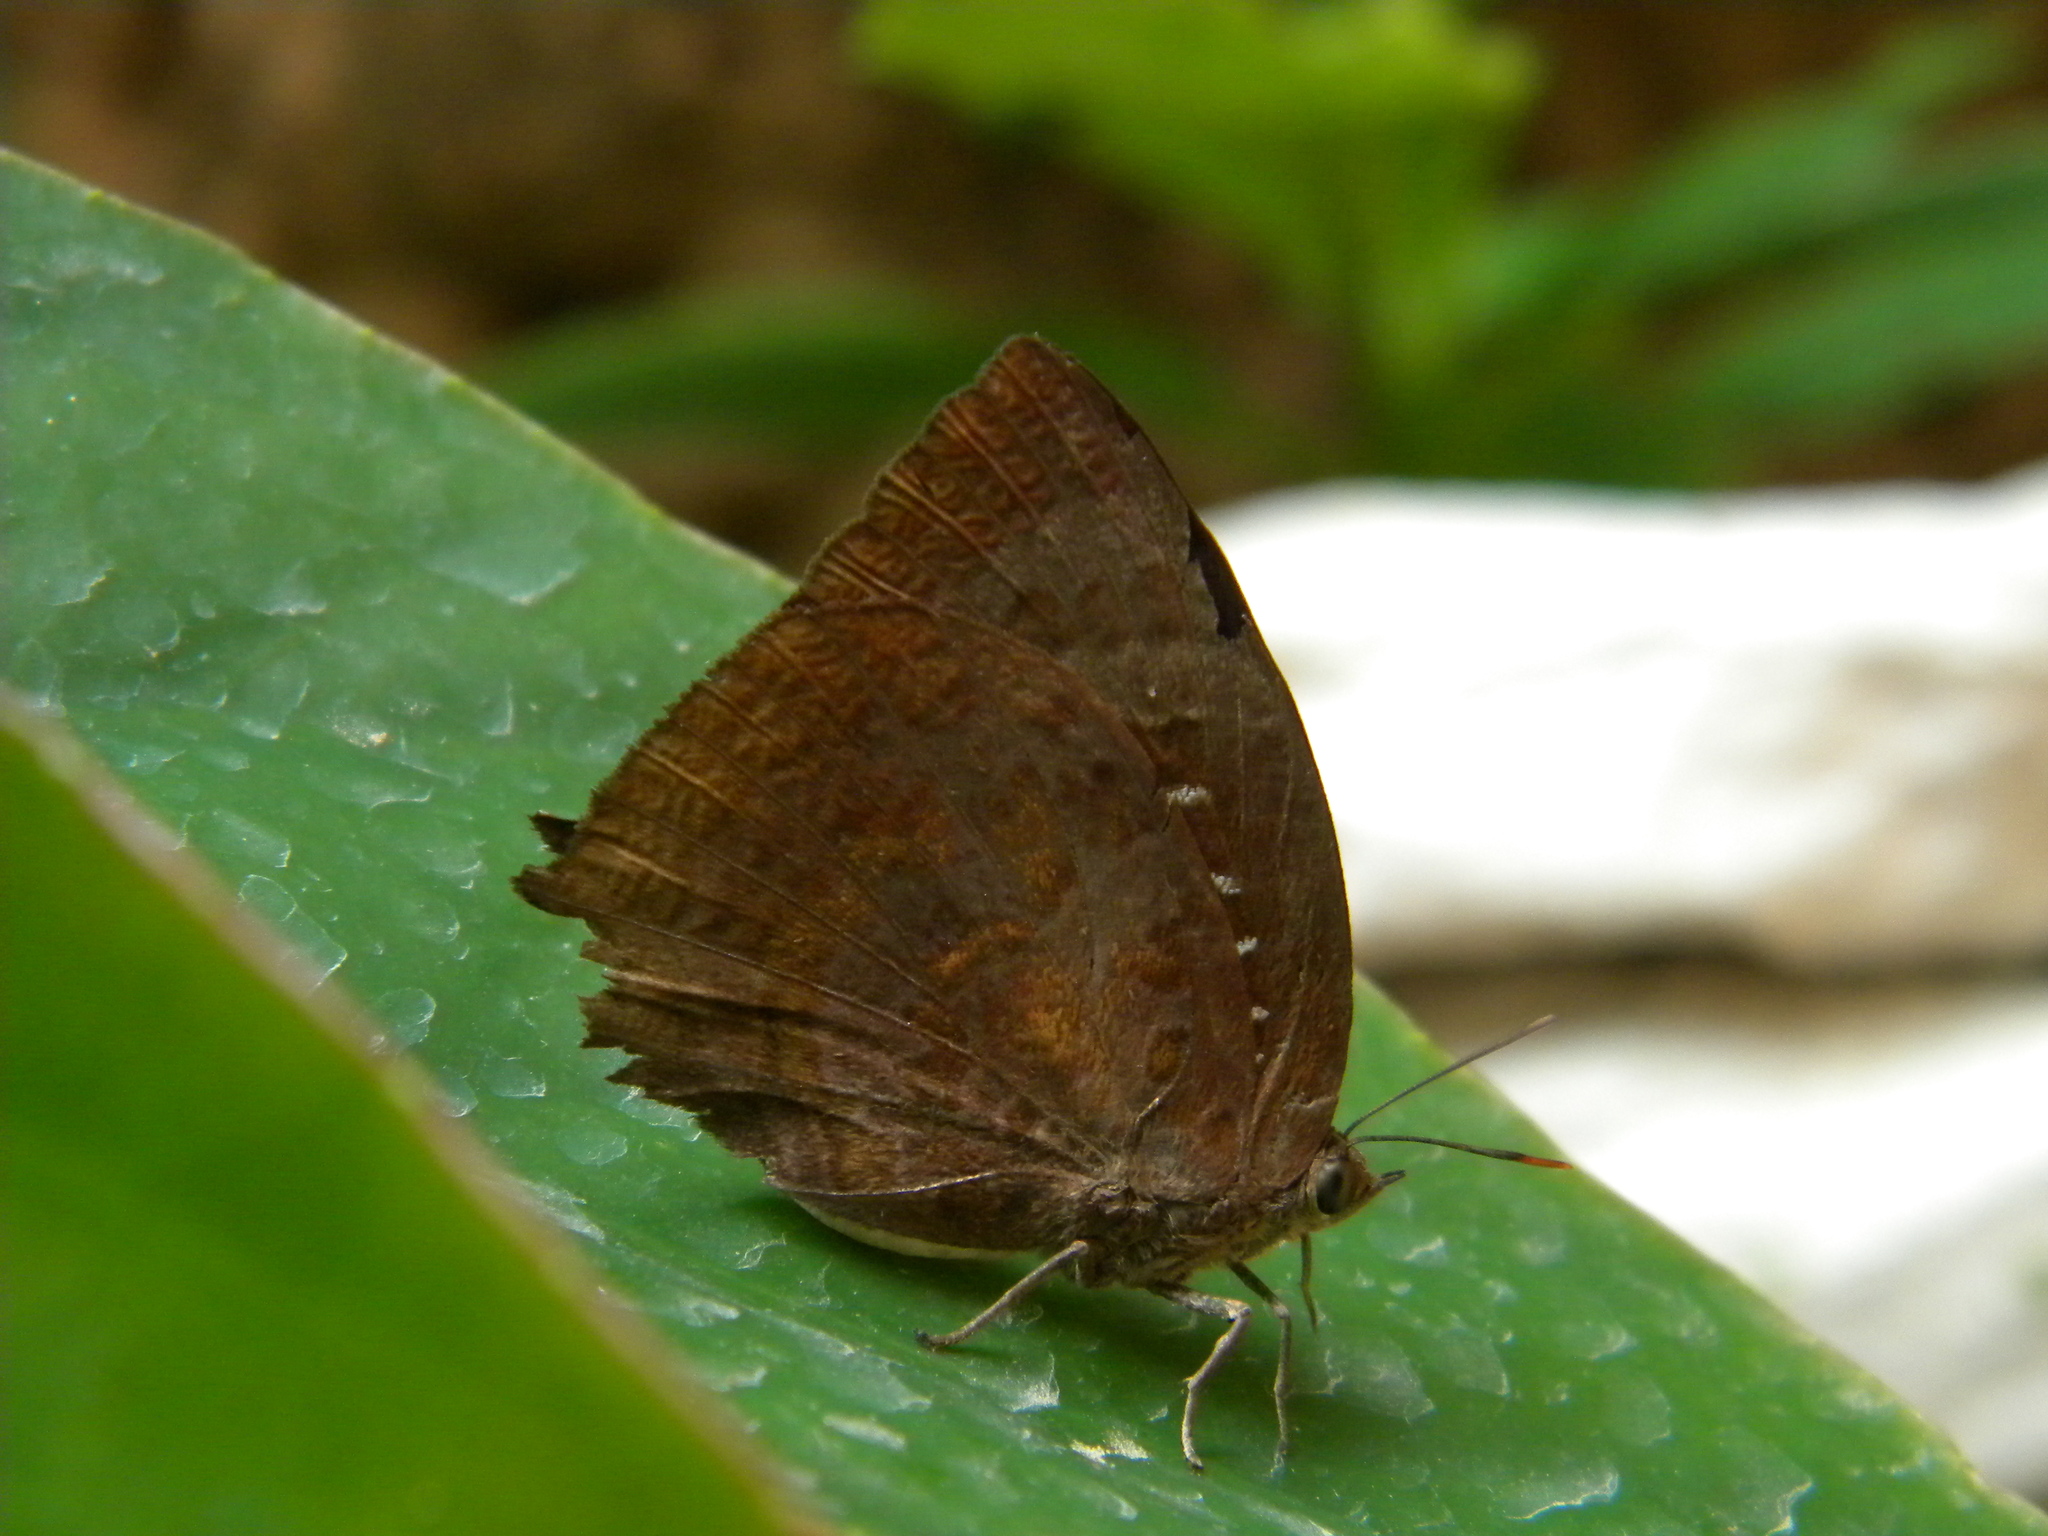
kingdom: Animalia
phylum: Arthropoda
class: Insecta
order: Lepidoptera
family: Lycaenidae
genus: Arhopala
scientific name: Arhopala centaurus
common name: Dull oak-blue
